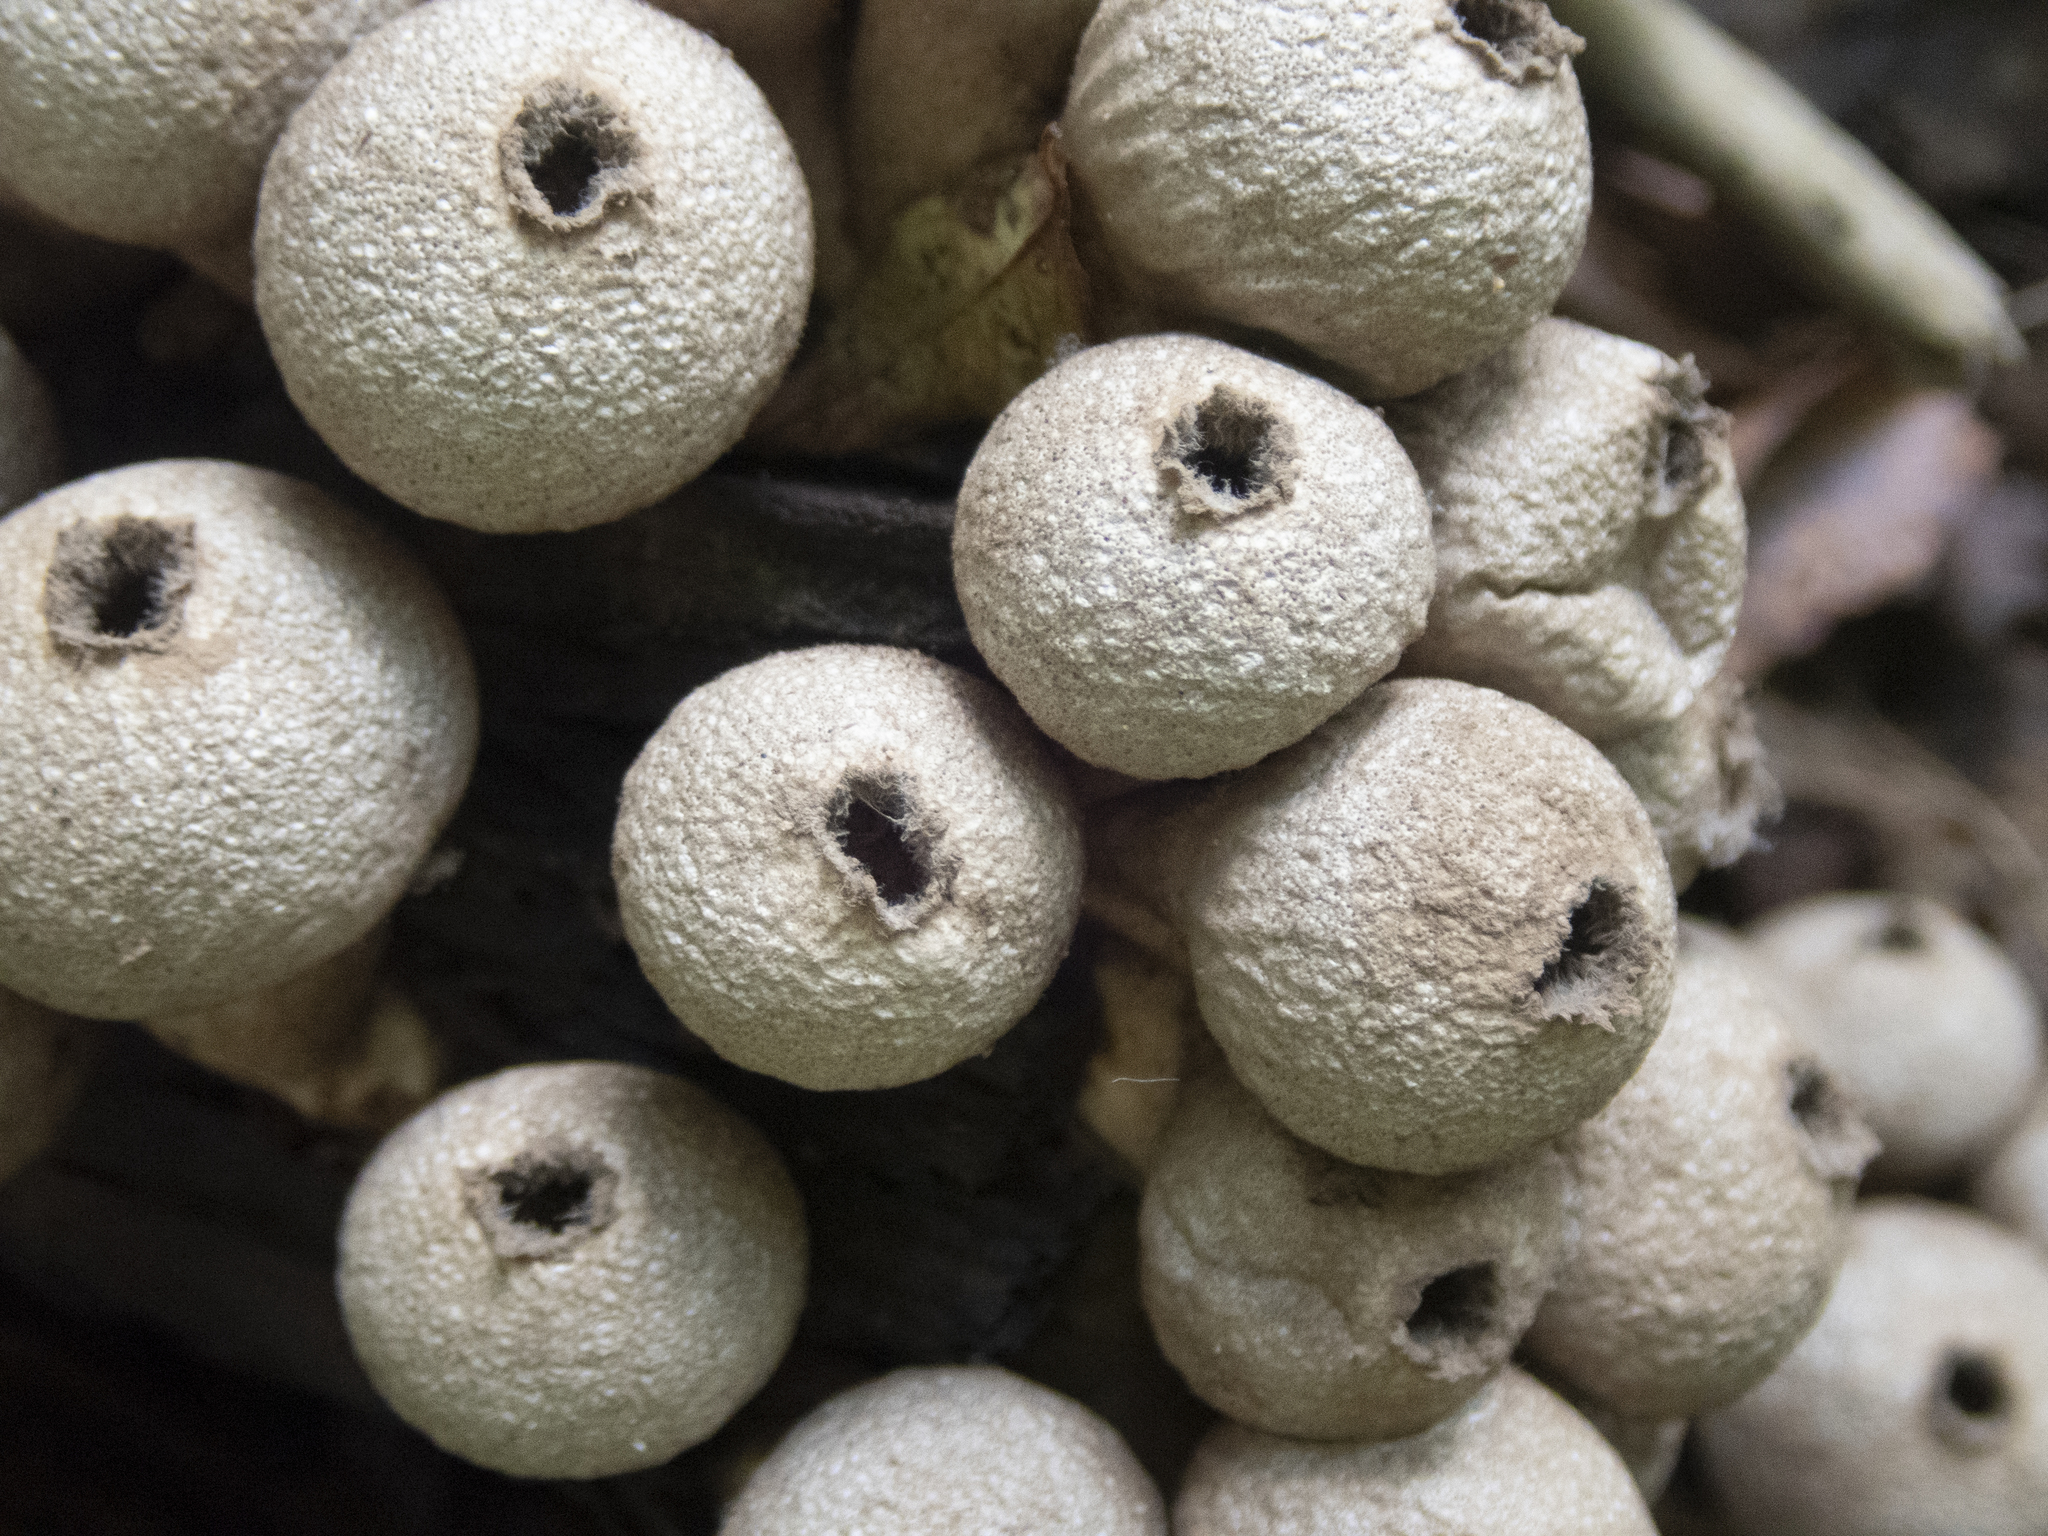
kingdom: Fungi
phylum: Basidiomycota
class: Agaricomycetes
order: Agaricales
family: Lycoperdaceae
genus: Apioperdon
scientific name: Apioperdon pyriforme
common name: Pear-shaped puffball
